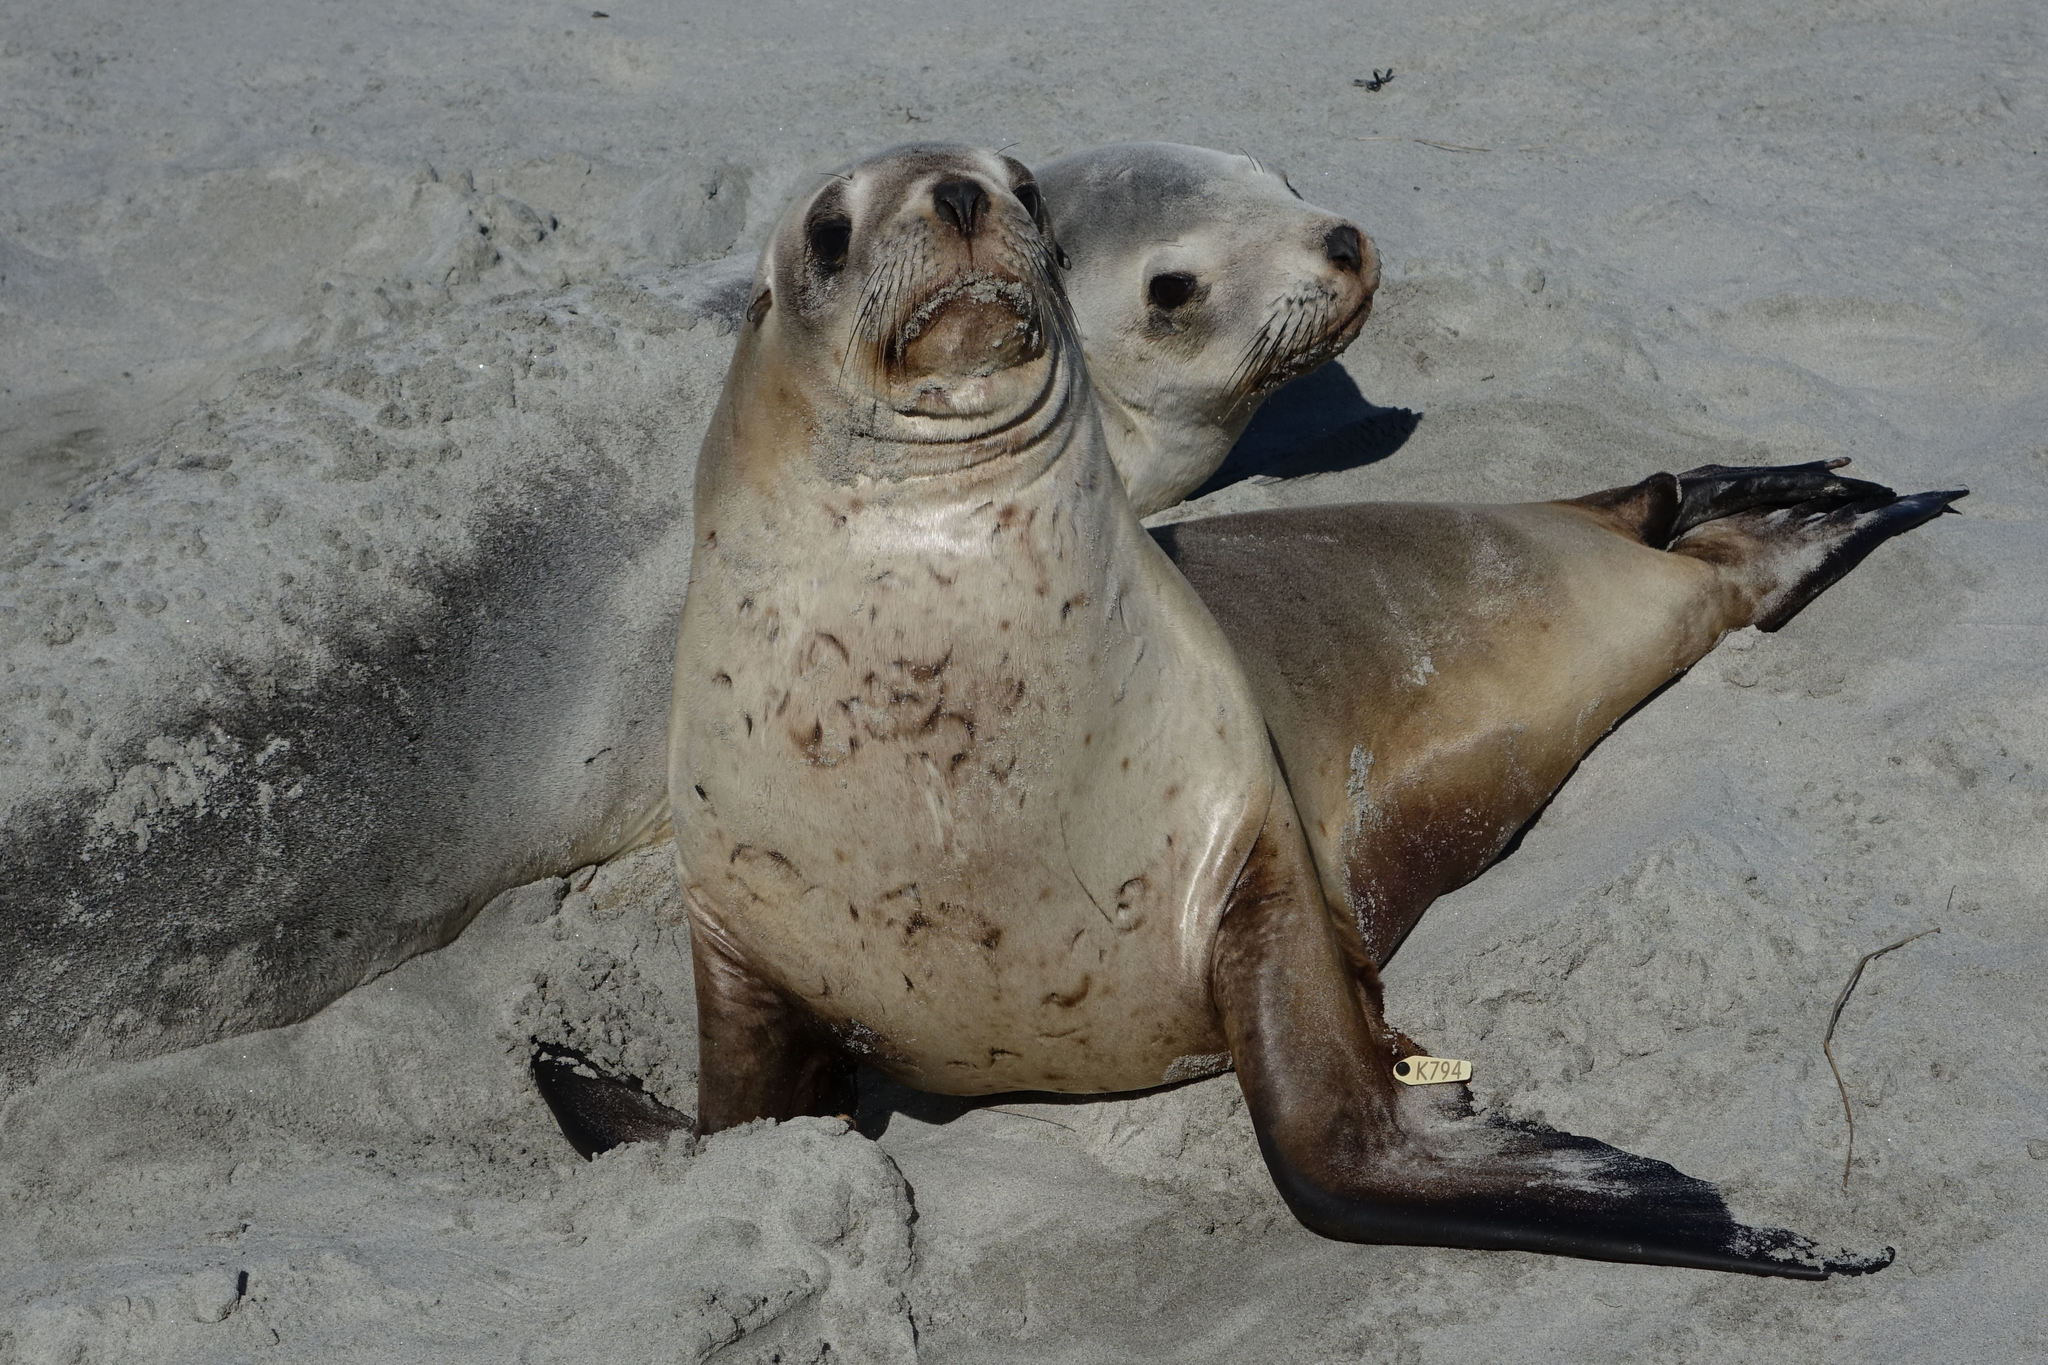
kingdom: Animalia
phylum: Chordata
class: Mammalia
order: Carnivora
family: Otariidae
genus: Phocarctos
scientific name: Phocarctos hookeri
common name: New zealand sea lion
